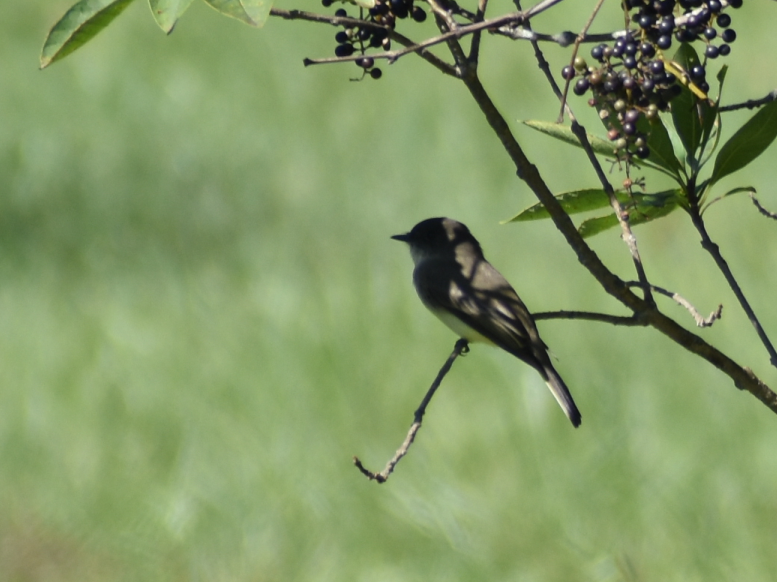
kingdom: Animalia
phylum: Chordata
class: Aves
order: Passeriformes
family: Tyrannidae
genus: Sayornis
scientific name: Sayornis phoebe
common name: Eastern phoebe
